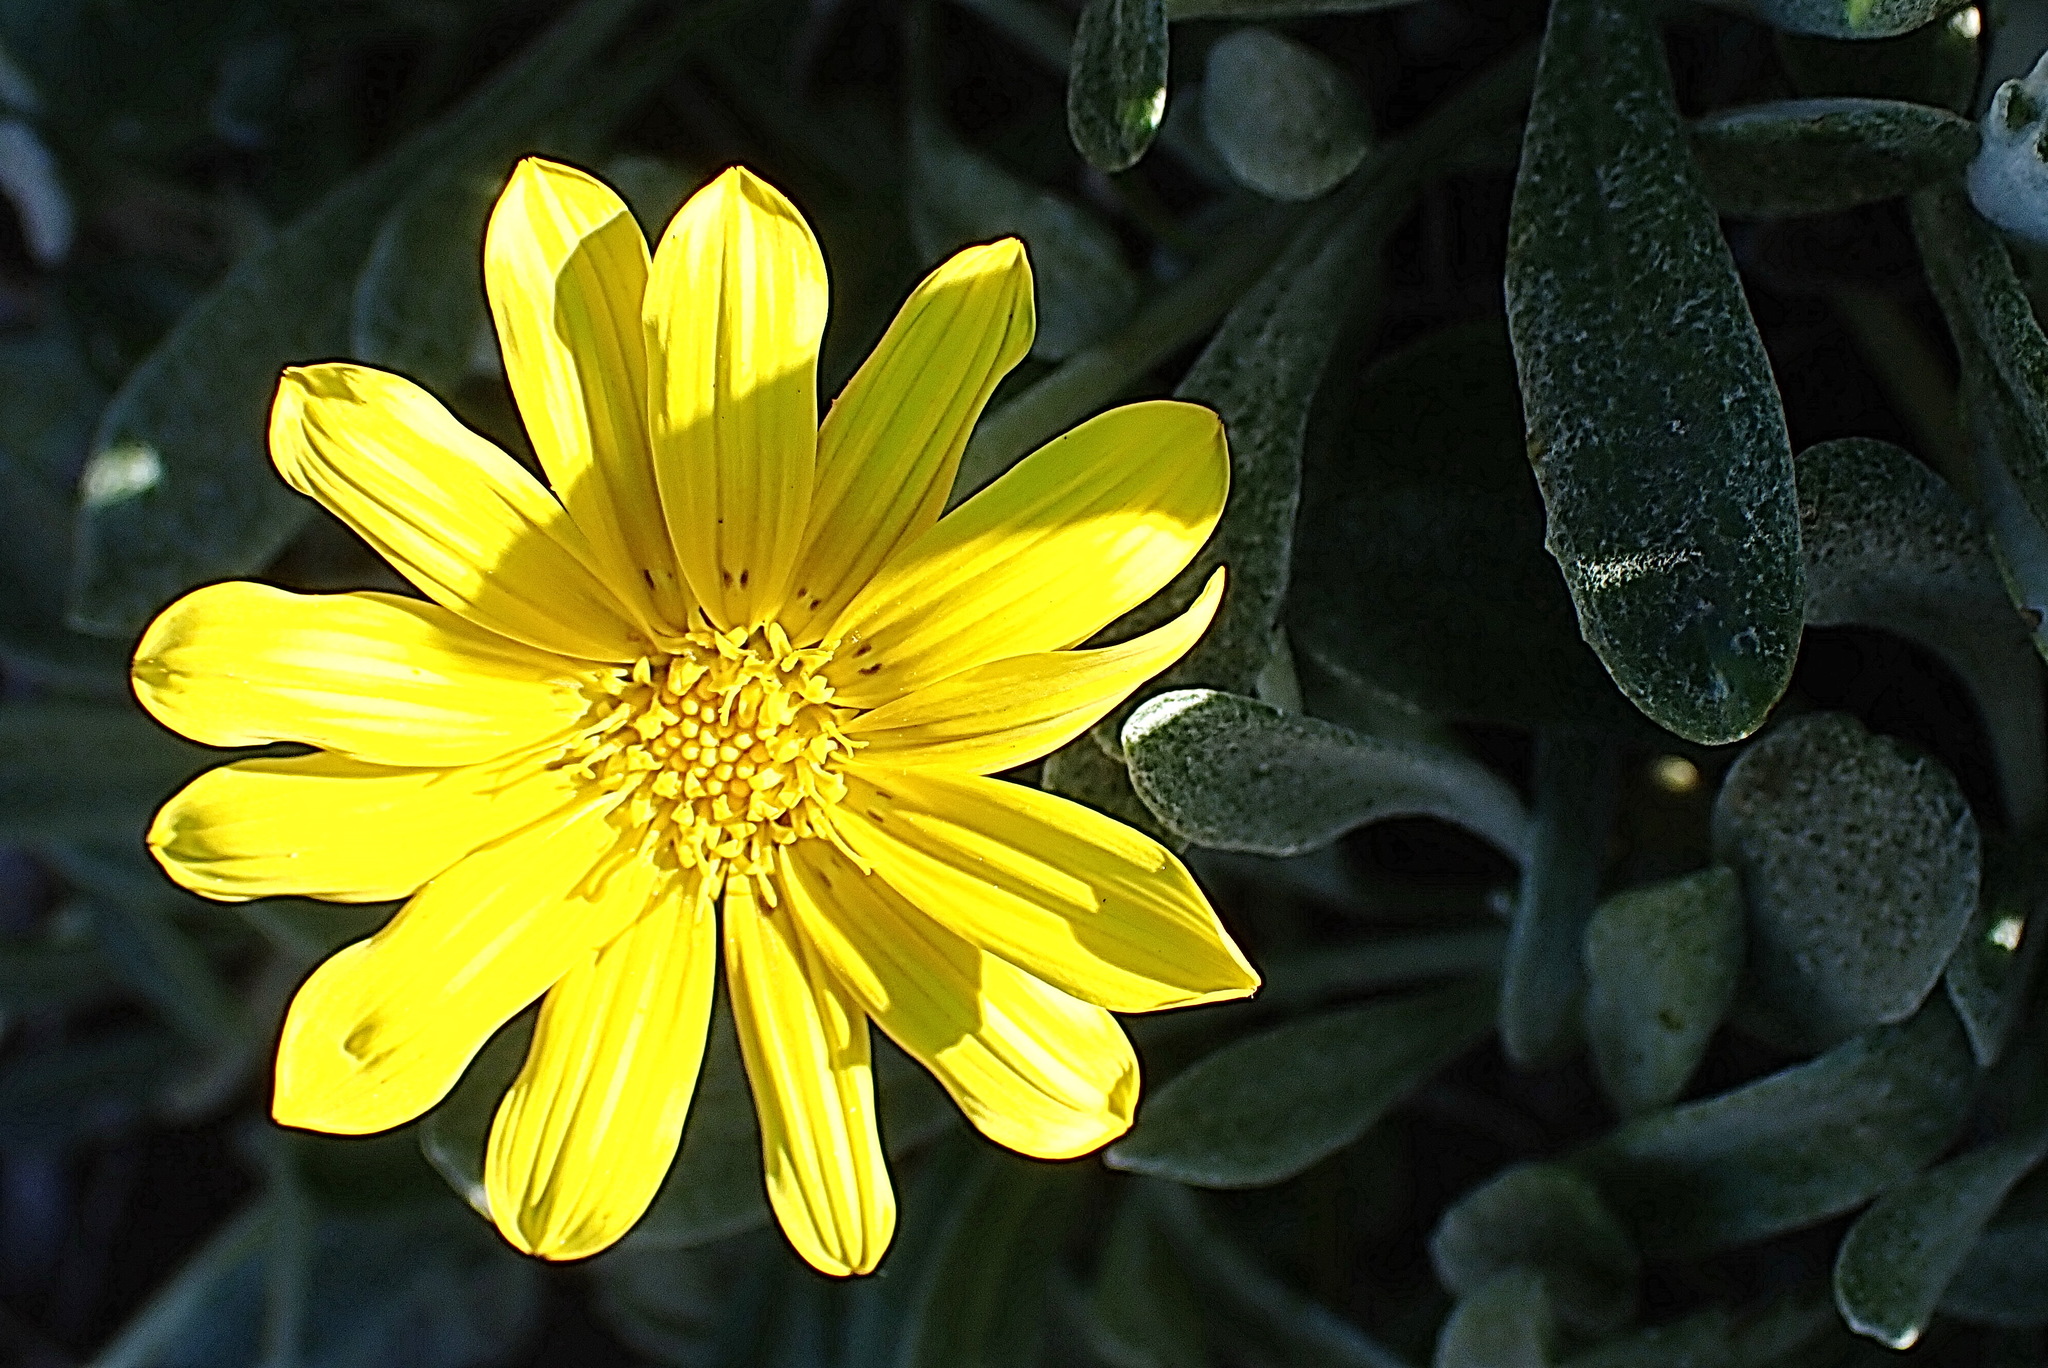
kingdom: Plantae
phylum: Tracheophyta
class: Magnoliopsida
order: Asterales
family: Asteraceae
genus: Gazania
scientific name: Gazania rigens
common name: Treasureflower
